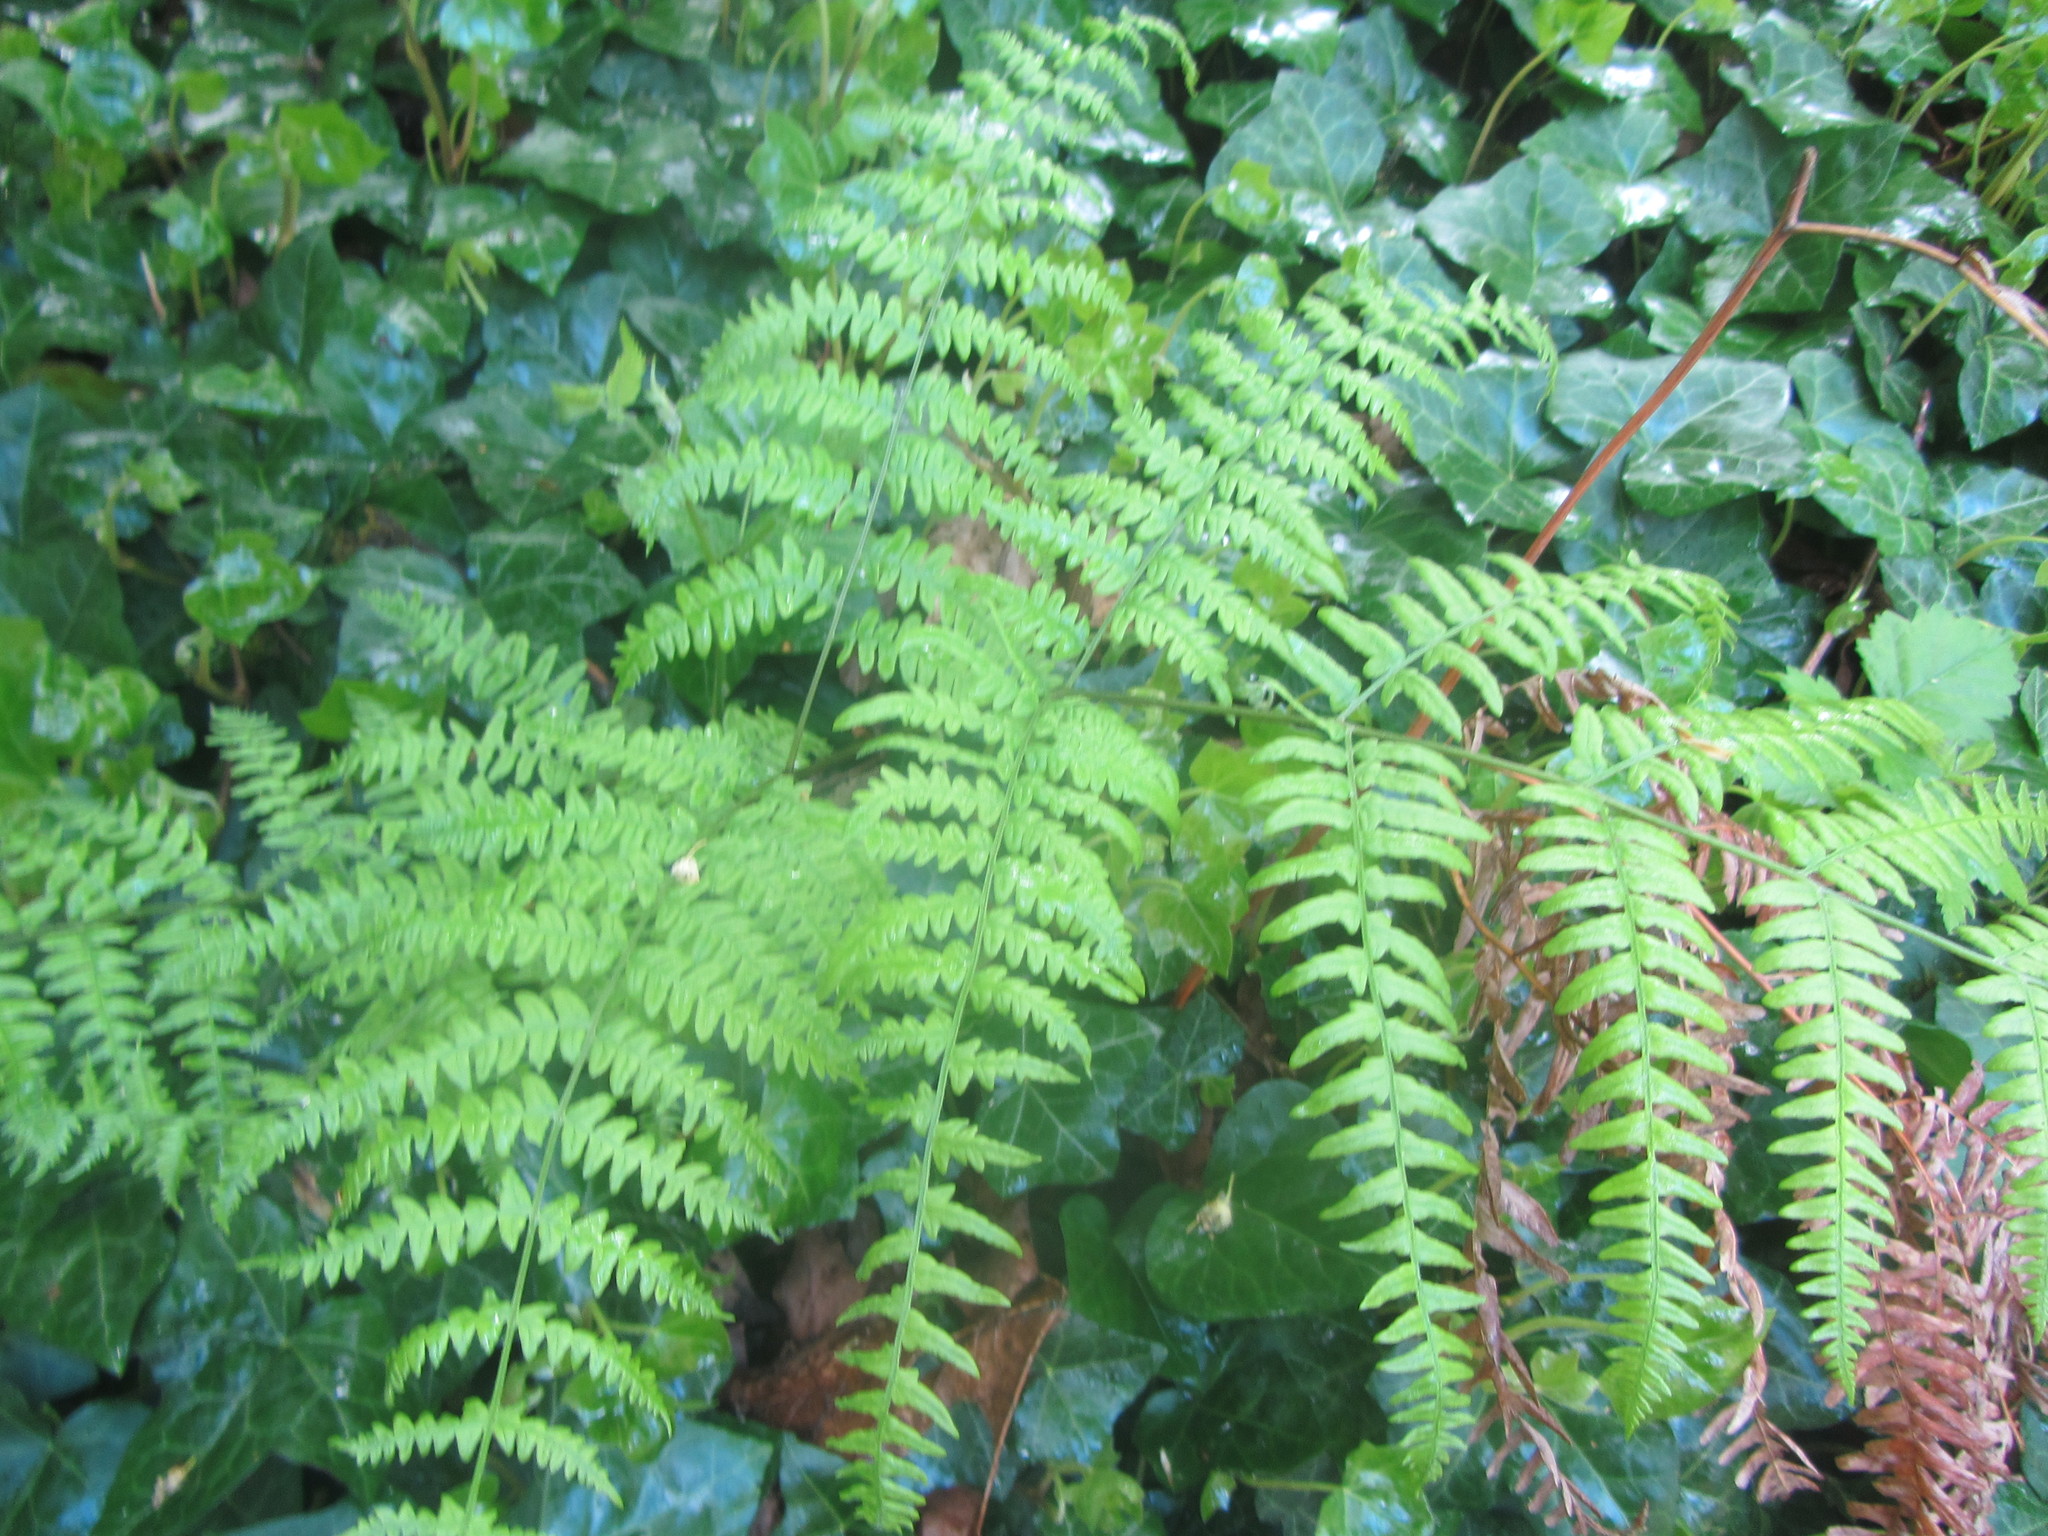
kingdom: Plantae
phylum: Tracheophyta
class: Polypodiopsida
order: Polypodiales
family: Athyriaceae
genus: Athyrium
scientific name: Athyrium filix-femina
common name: Lady fern
